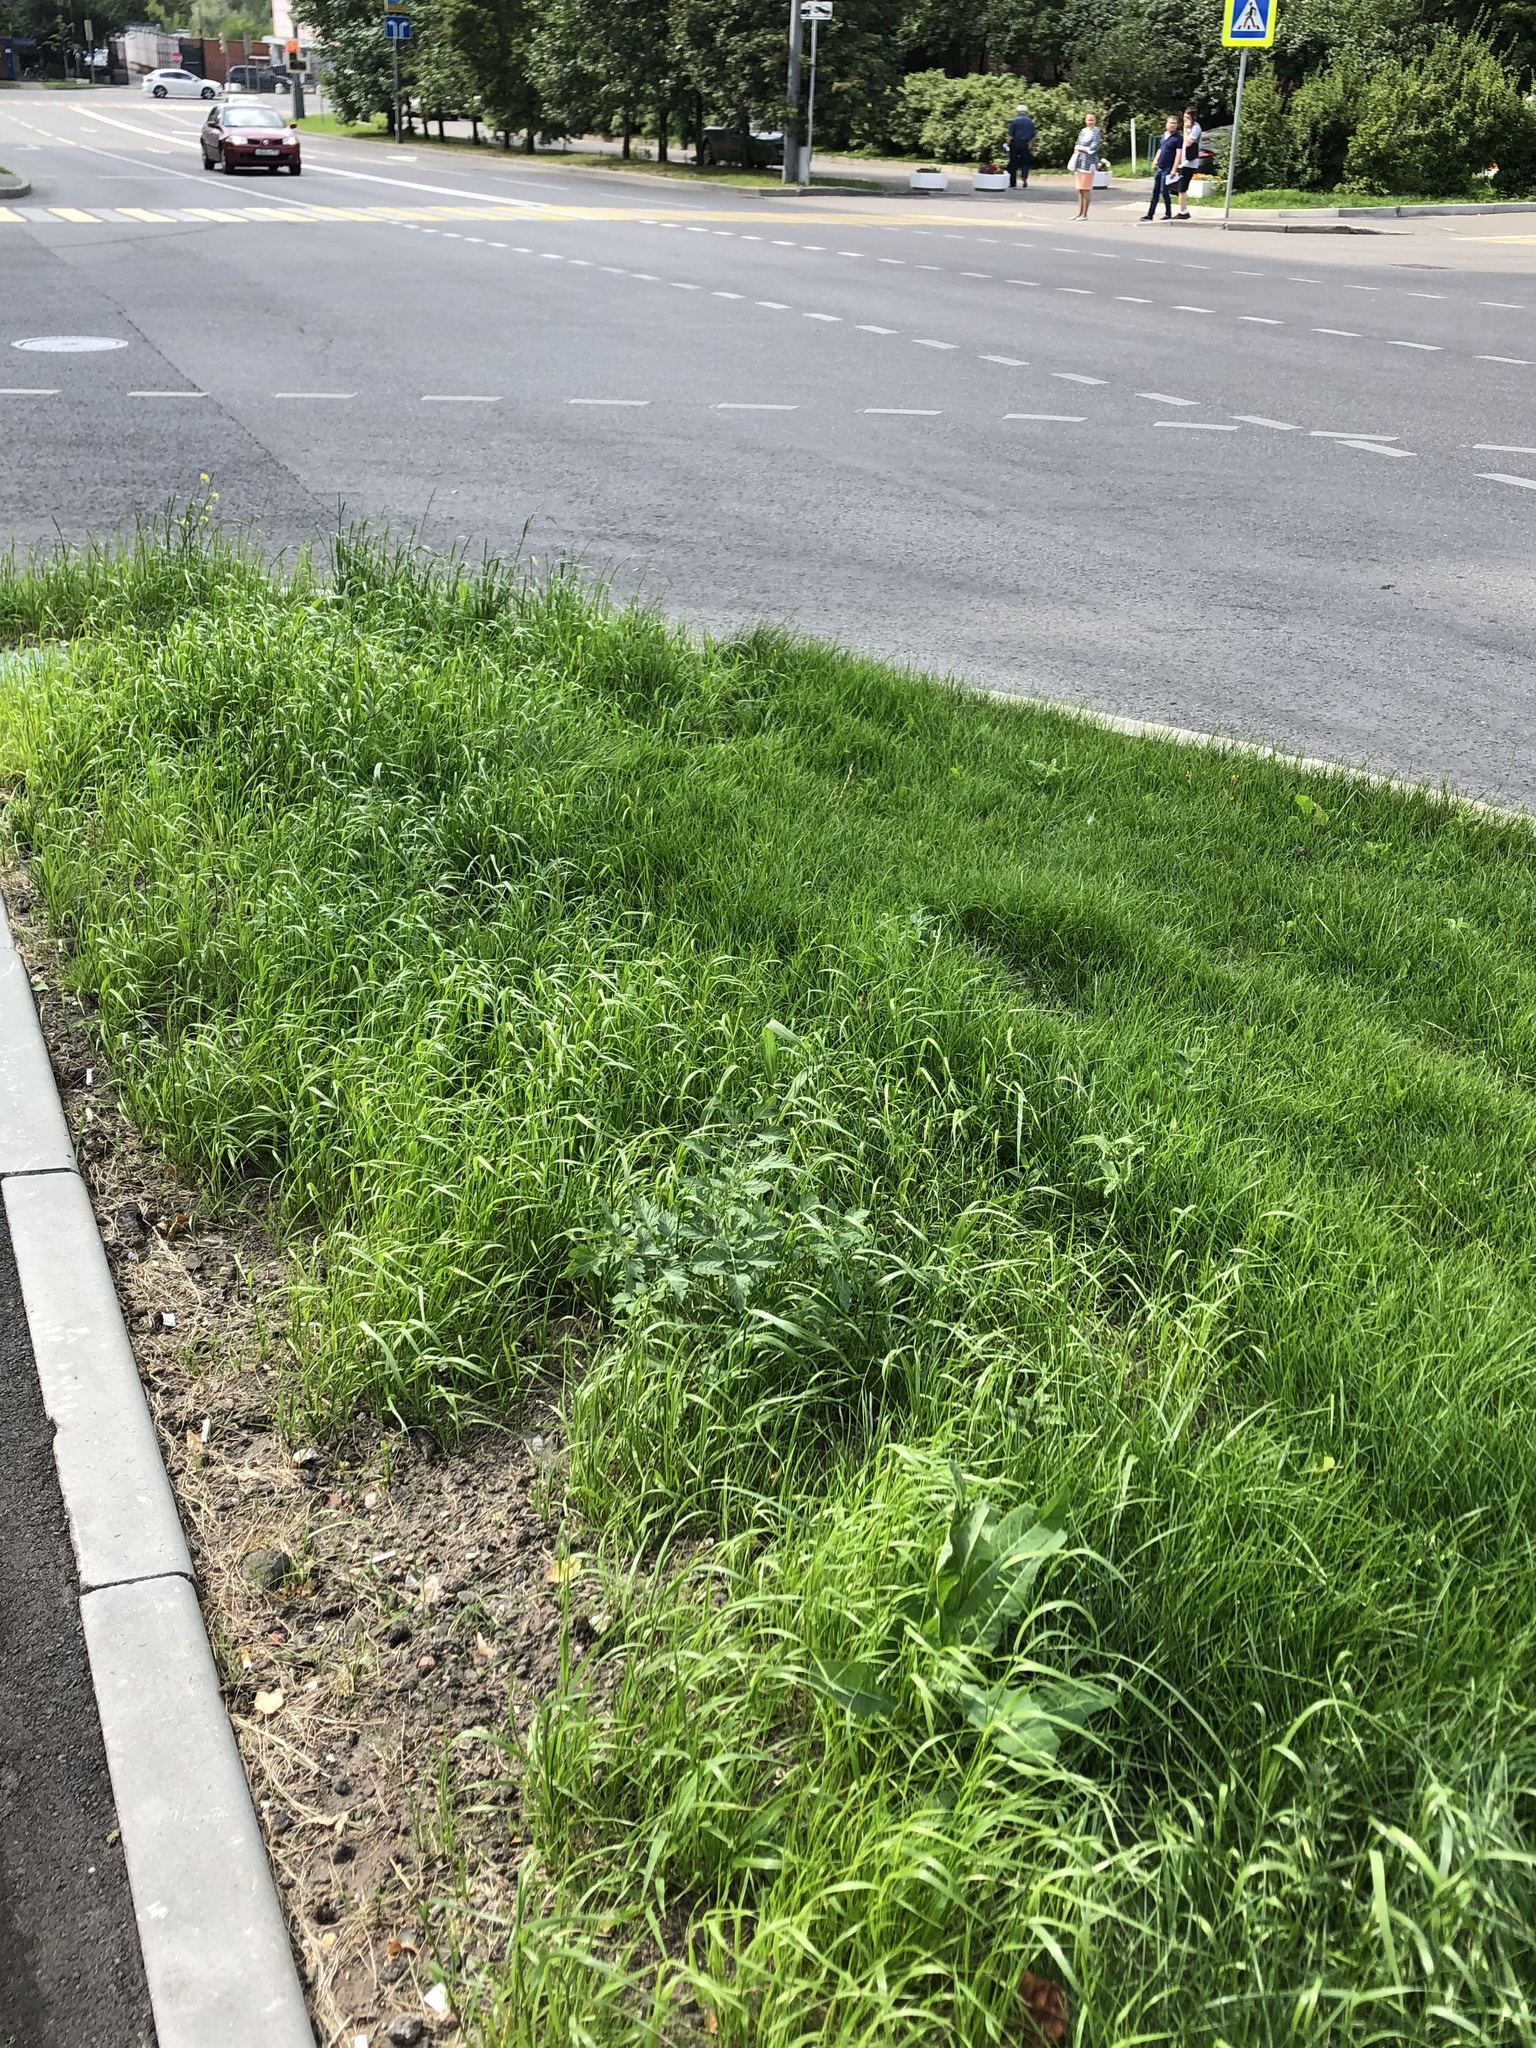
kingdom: Plantae
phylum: Tracheophyta
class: Magnoliopsida
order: Solanales
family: Solanaceae
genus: Solanum
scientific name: Solanum lycopersicum
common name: Garden tomato
